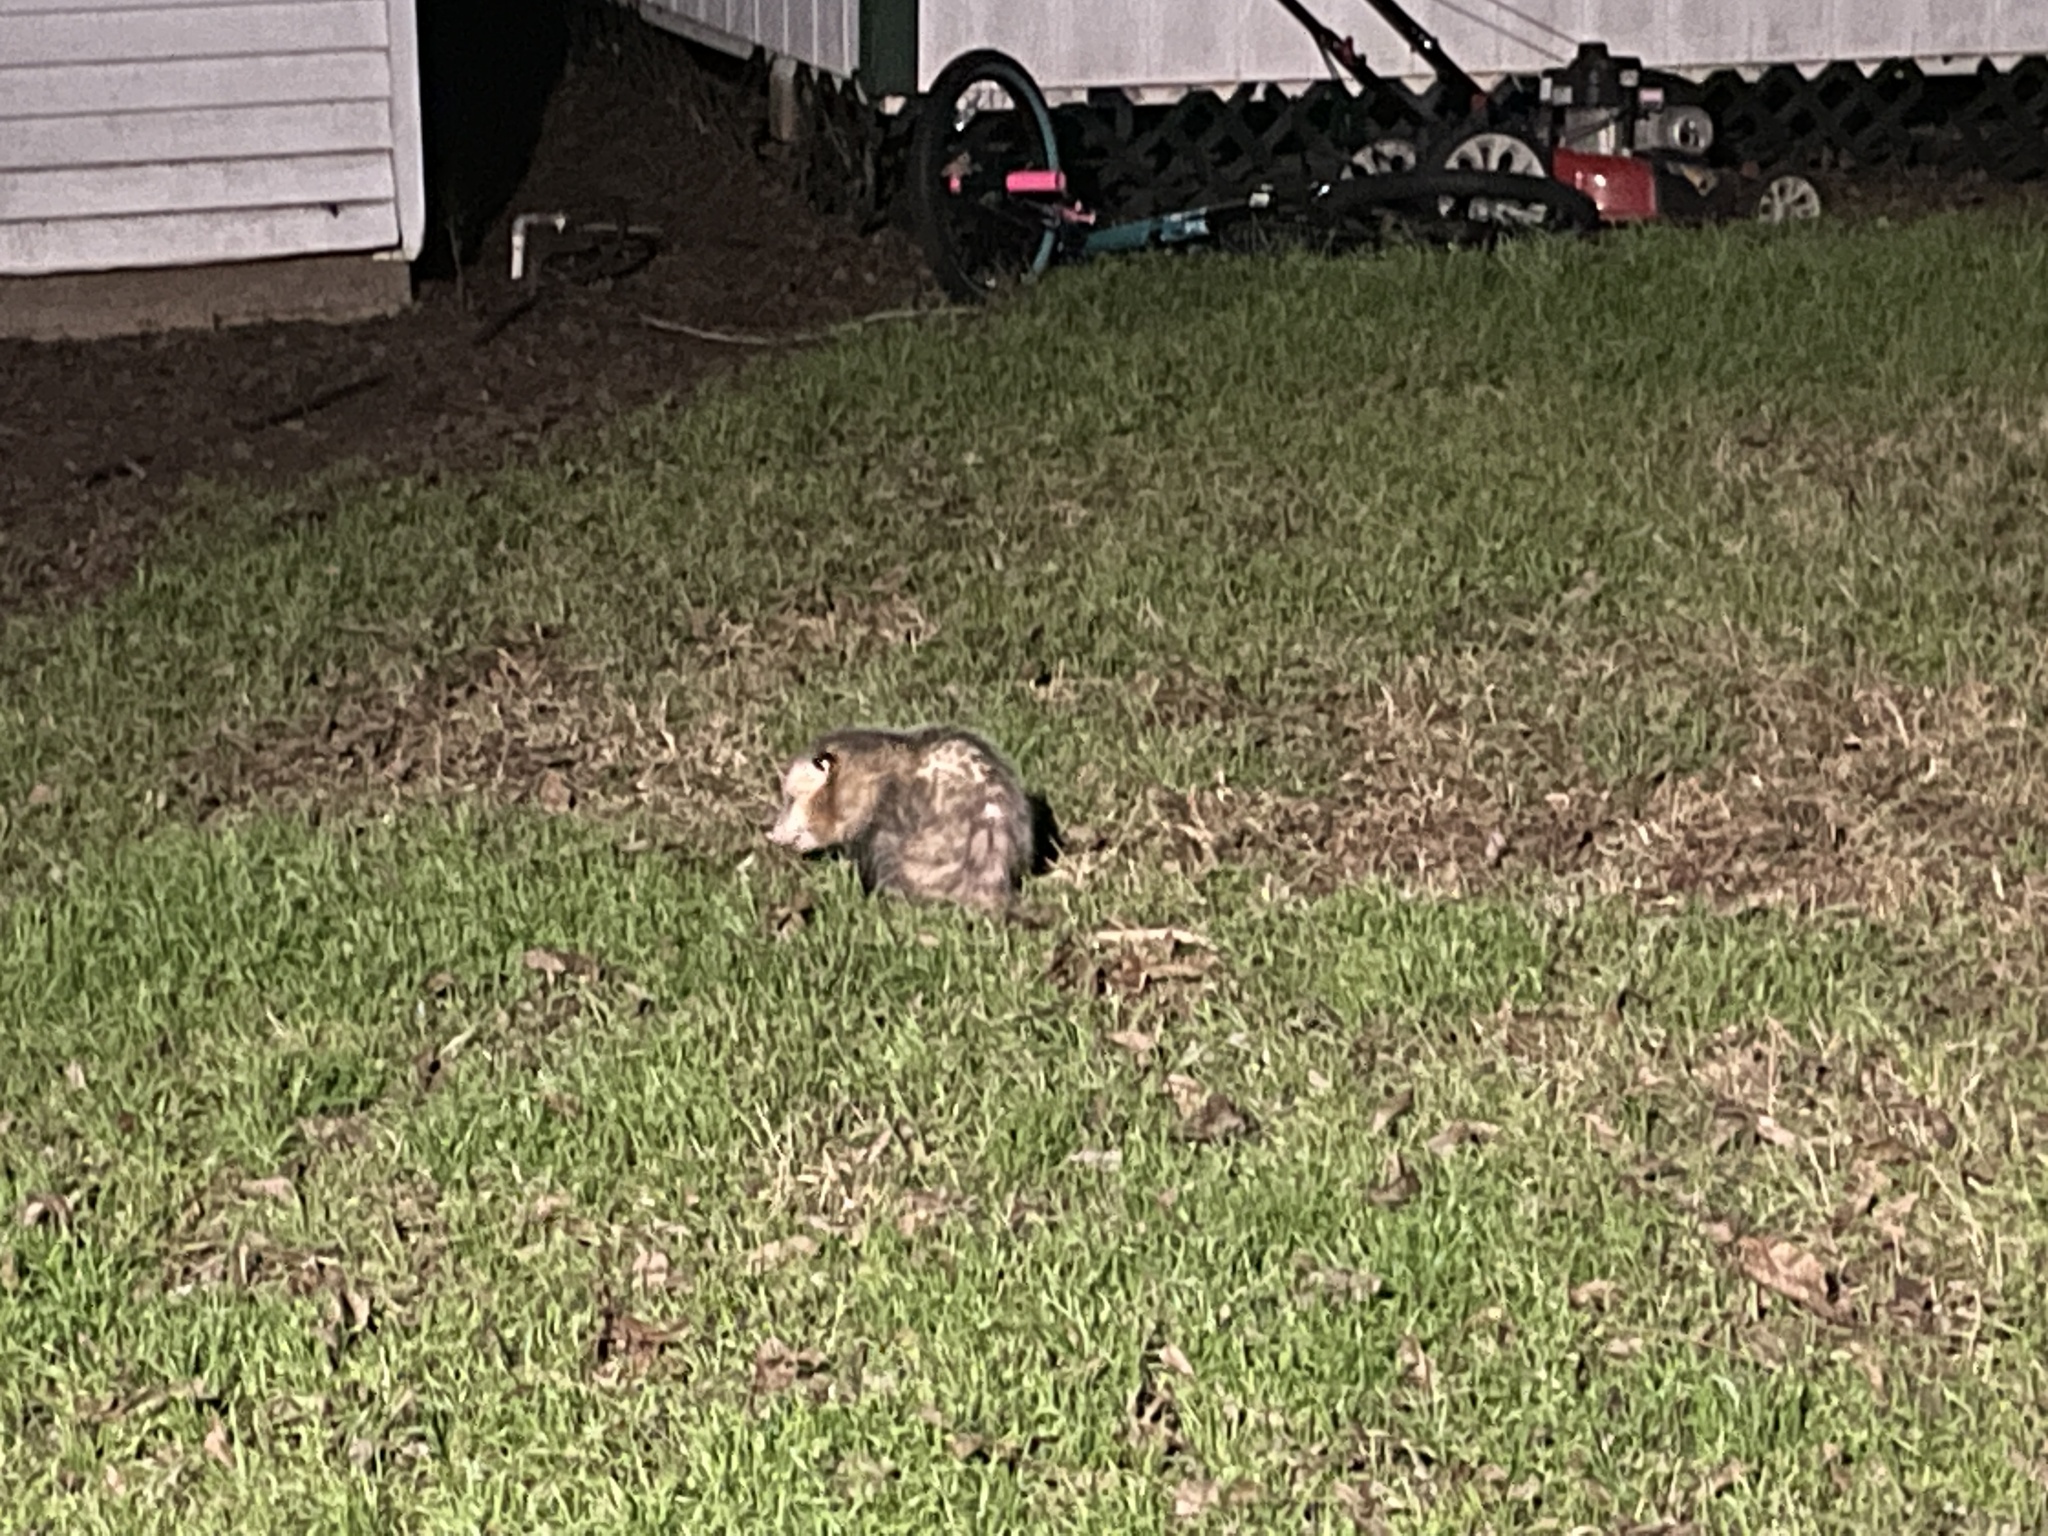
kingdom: Animalia
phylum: Chordata
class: Mammalia
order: Didelphimorphia
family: Didelphidae
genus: Didelphis
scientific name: Didelphis virginiana
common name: Virginia opossum
